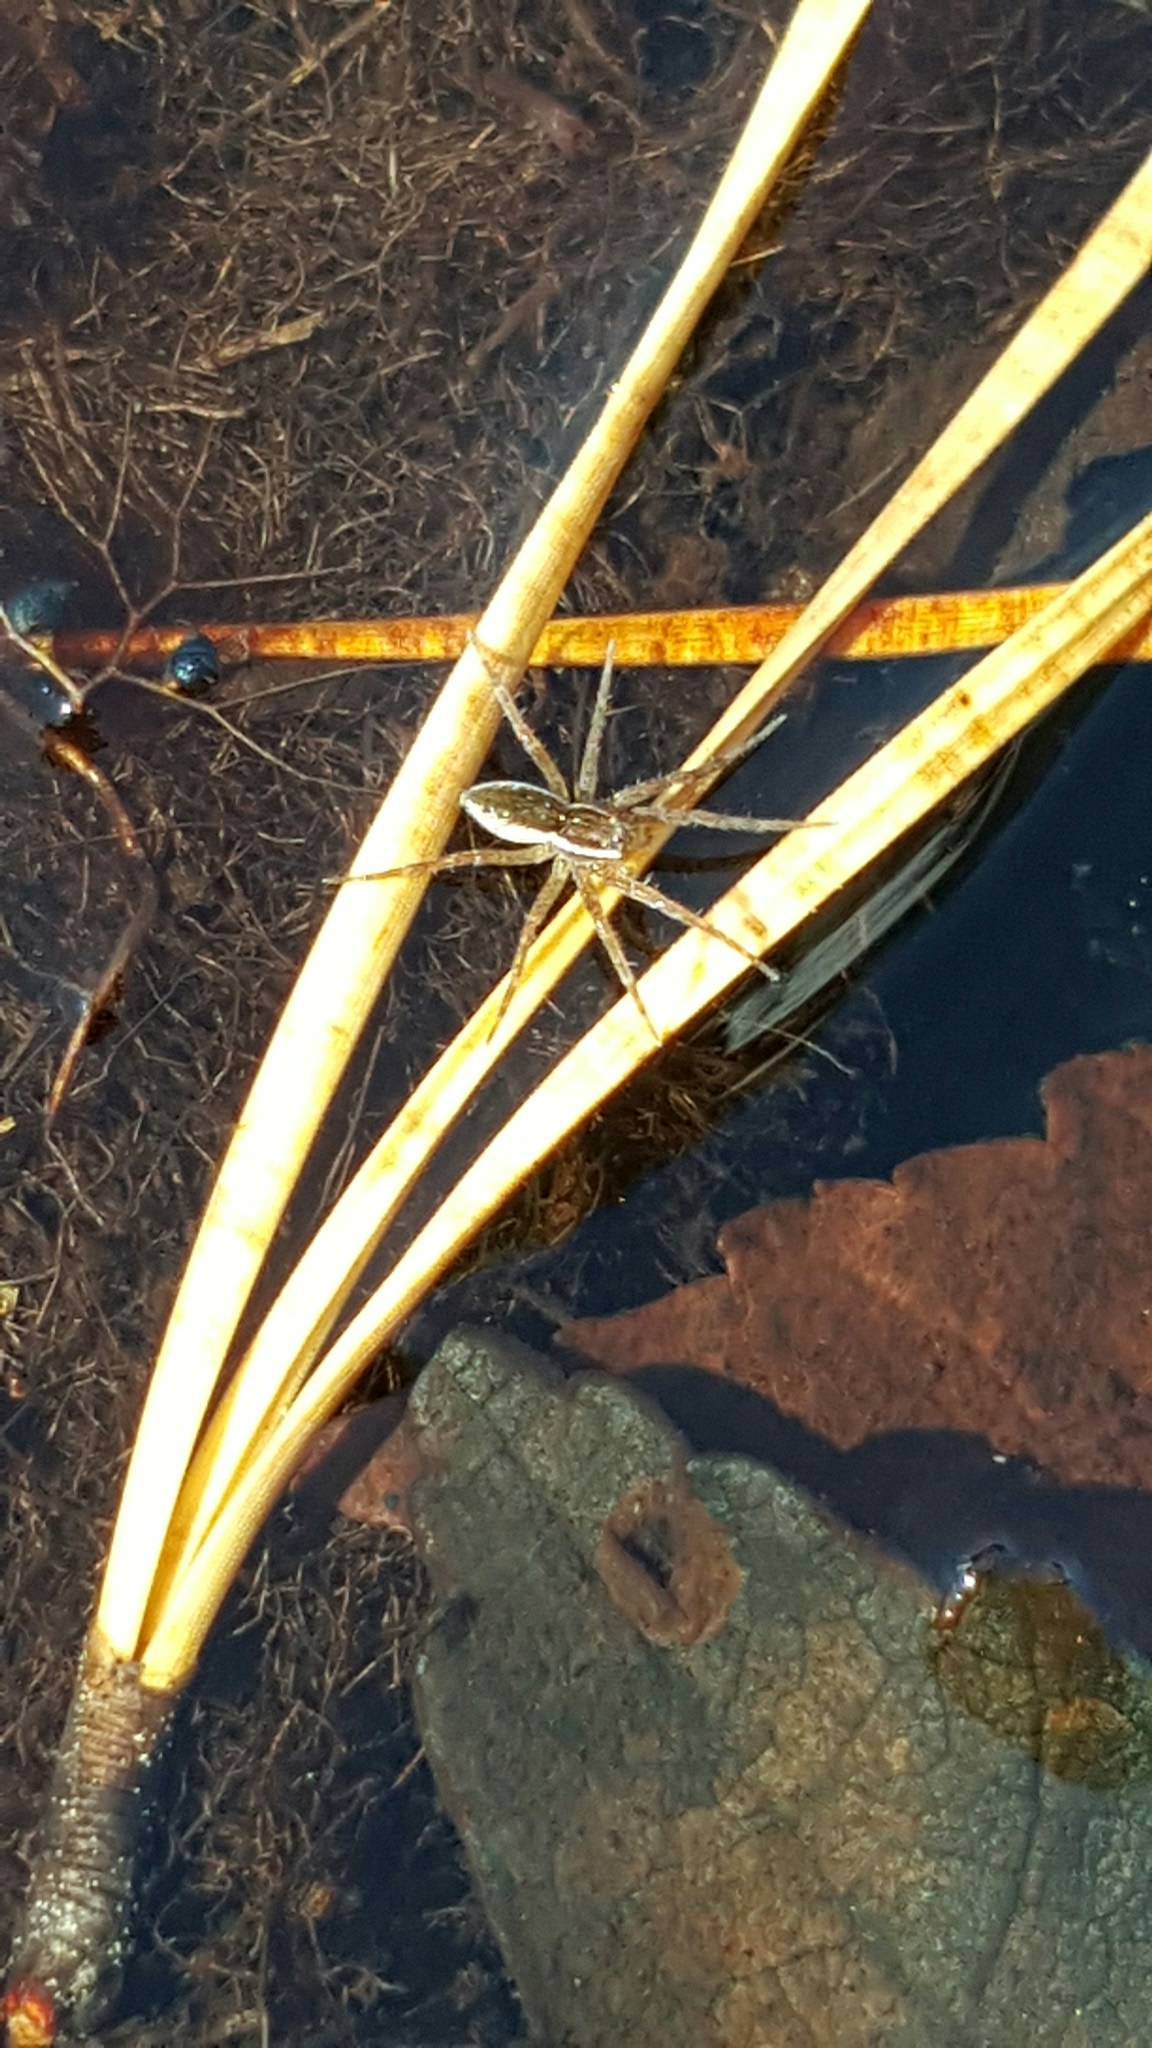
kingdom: Animalia
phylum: Arthropoda
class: Arachnida
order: Araneae
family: Pisauridae
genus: Dolomedes
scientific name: Dolomedes triton
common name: Six-spotted fishing spider
